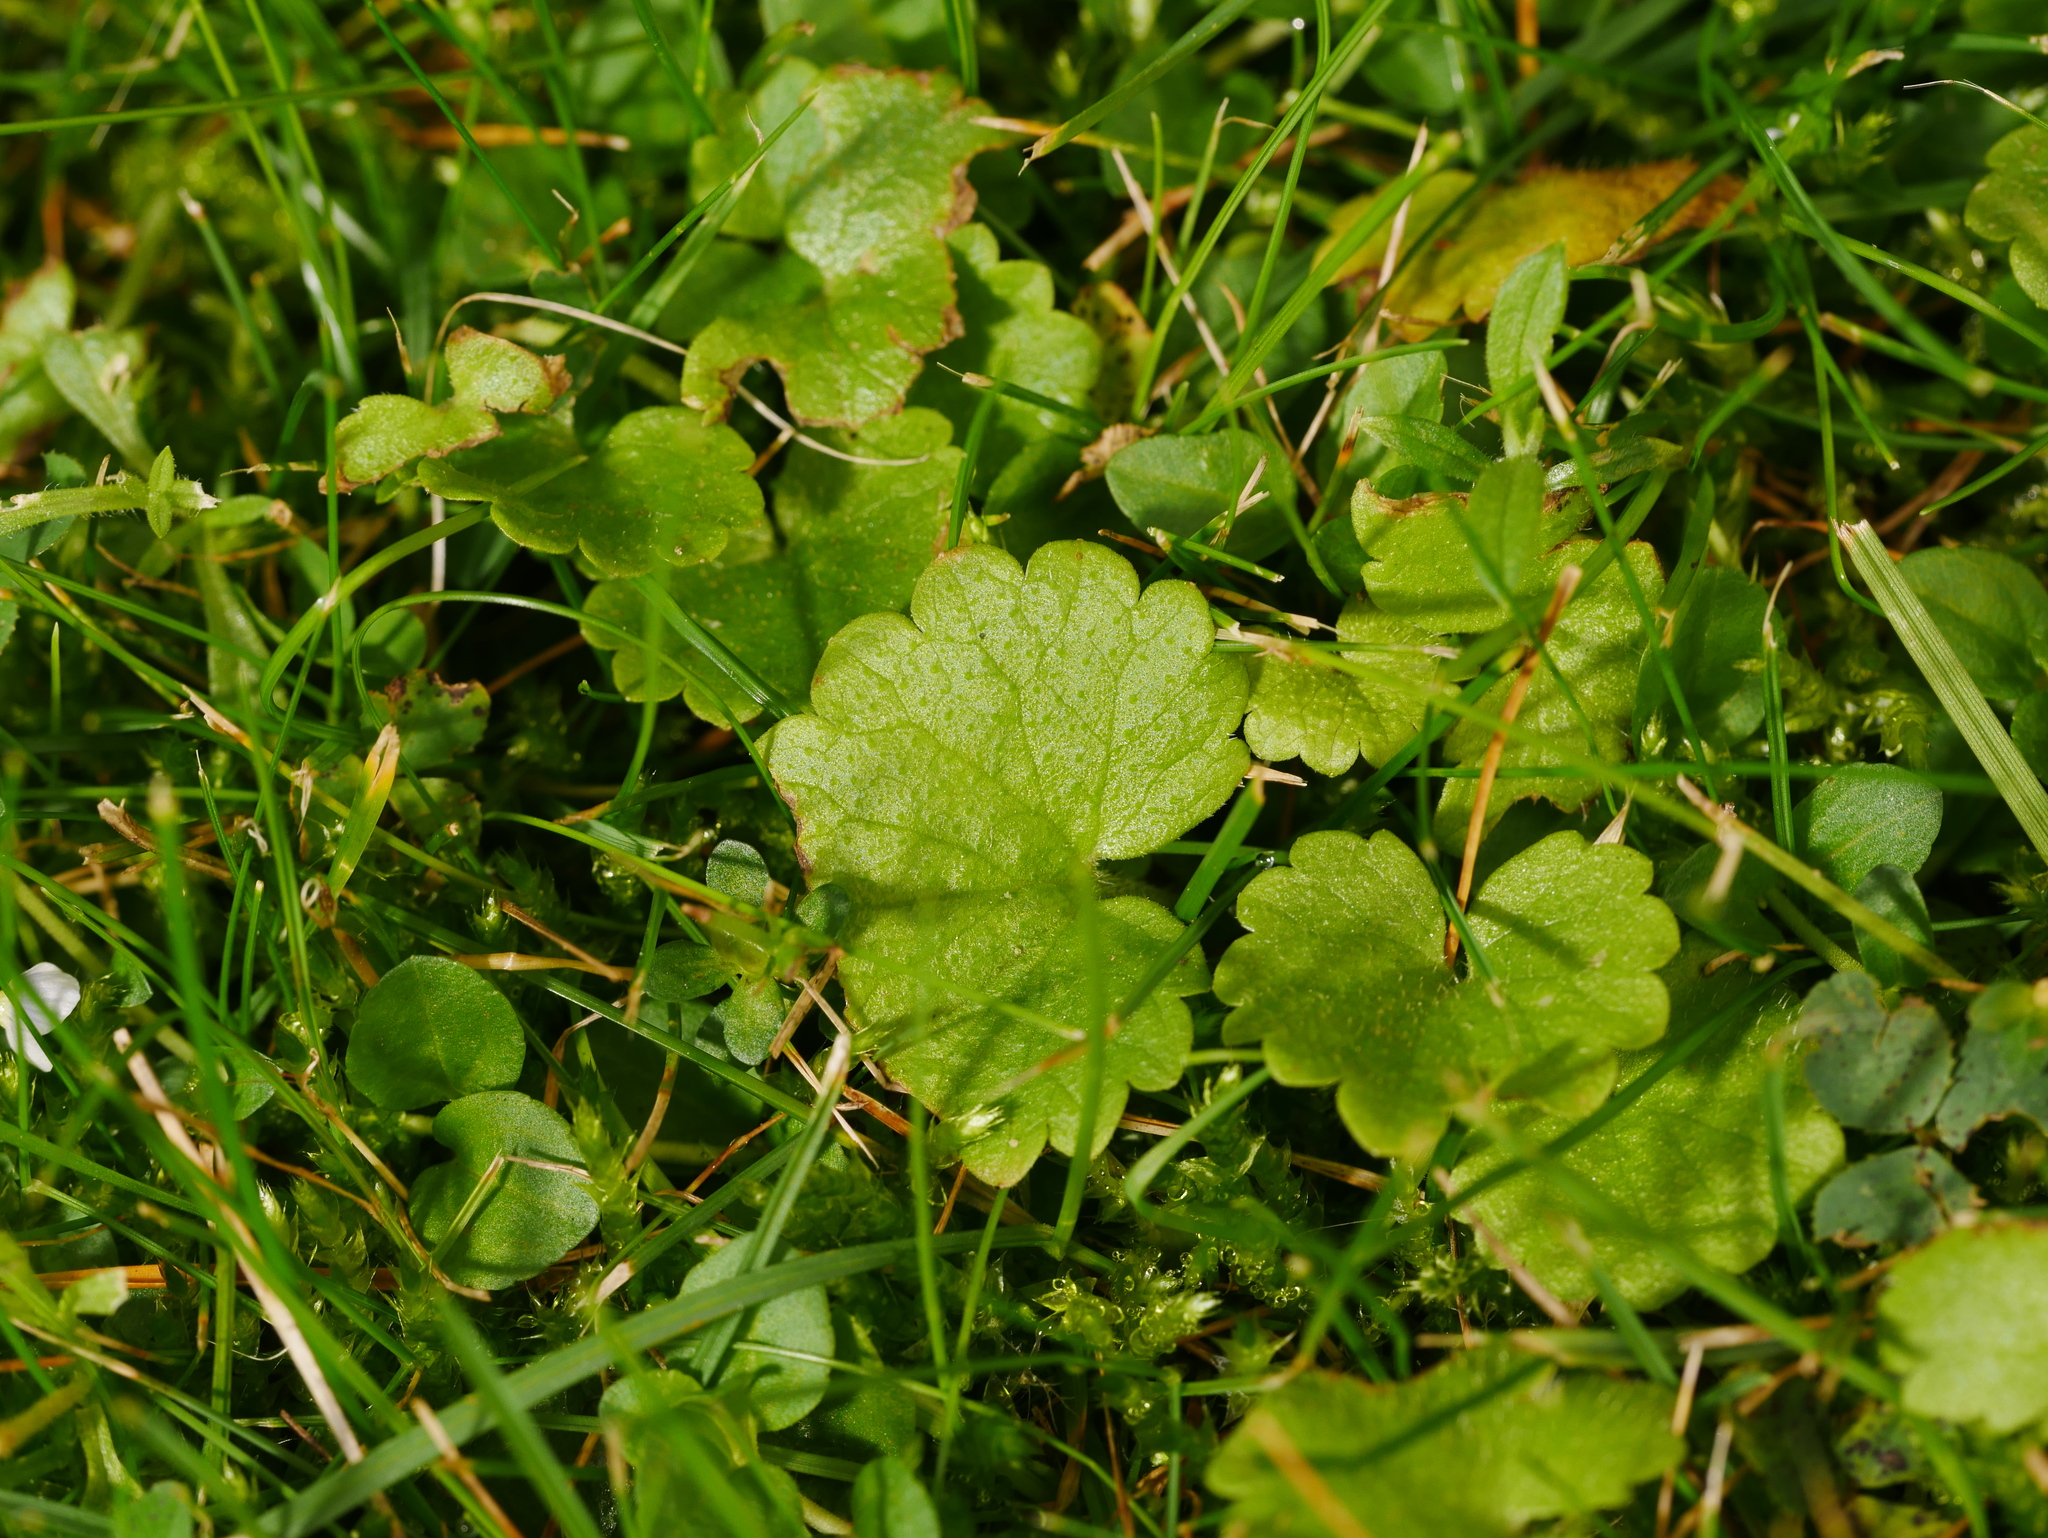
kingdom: Plantae
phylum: Tracheophyta
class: Magnoliopsida
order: Lamiales
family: Lamiaceae
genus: Glechoma
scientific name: Glechoma hederacea
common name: Ground ivy
